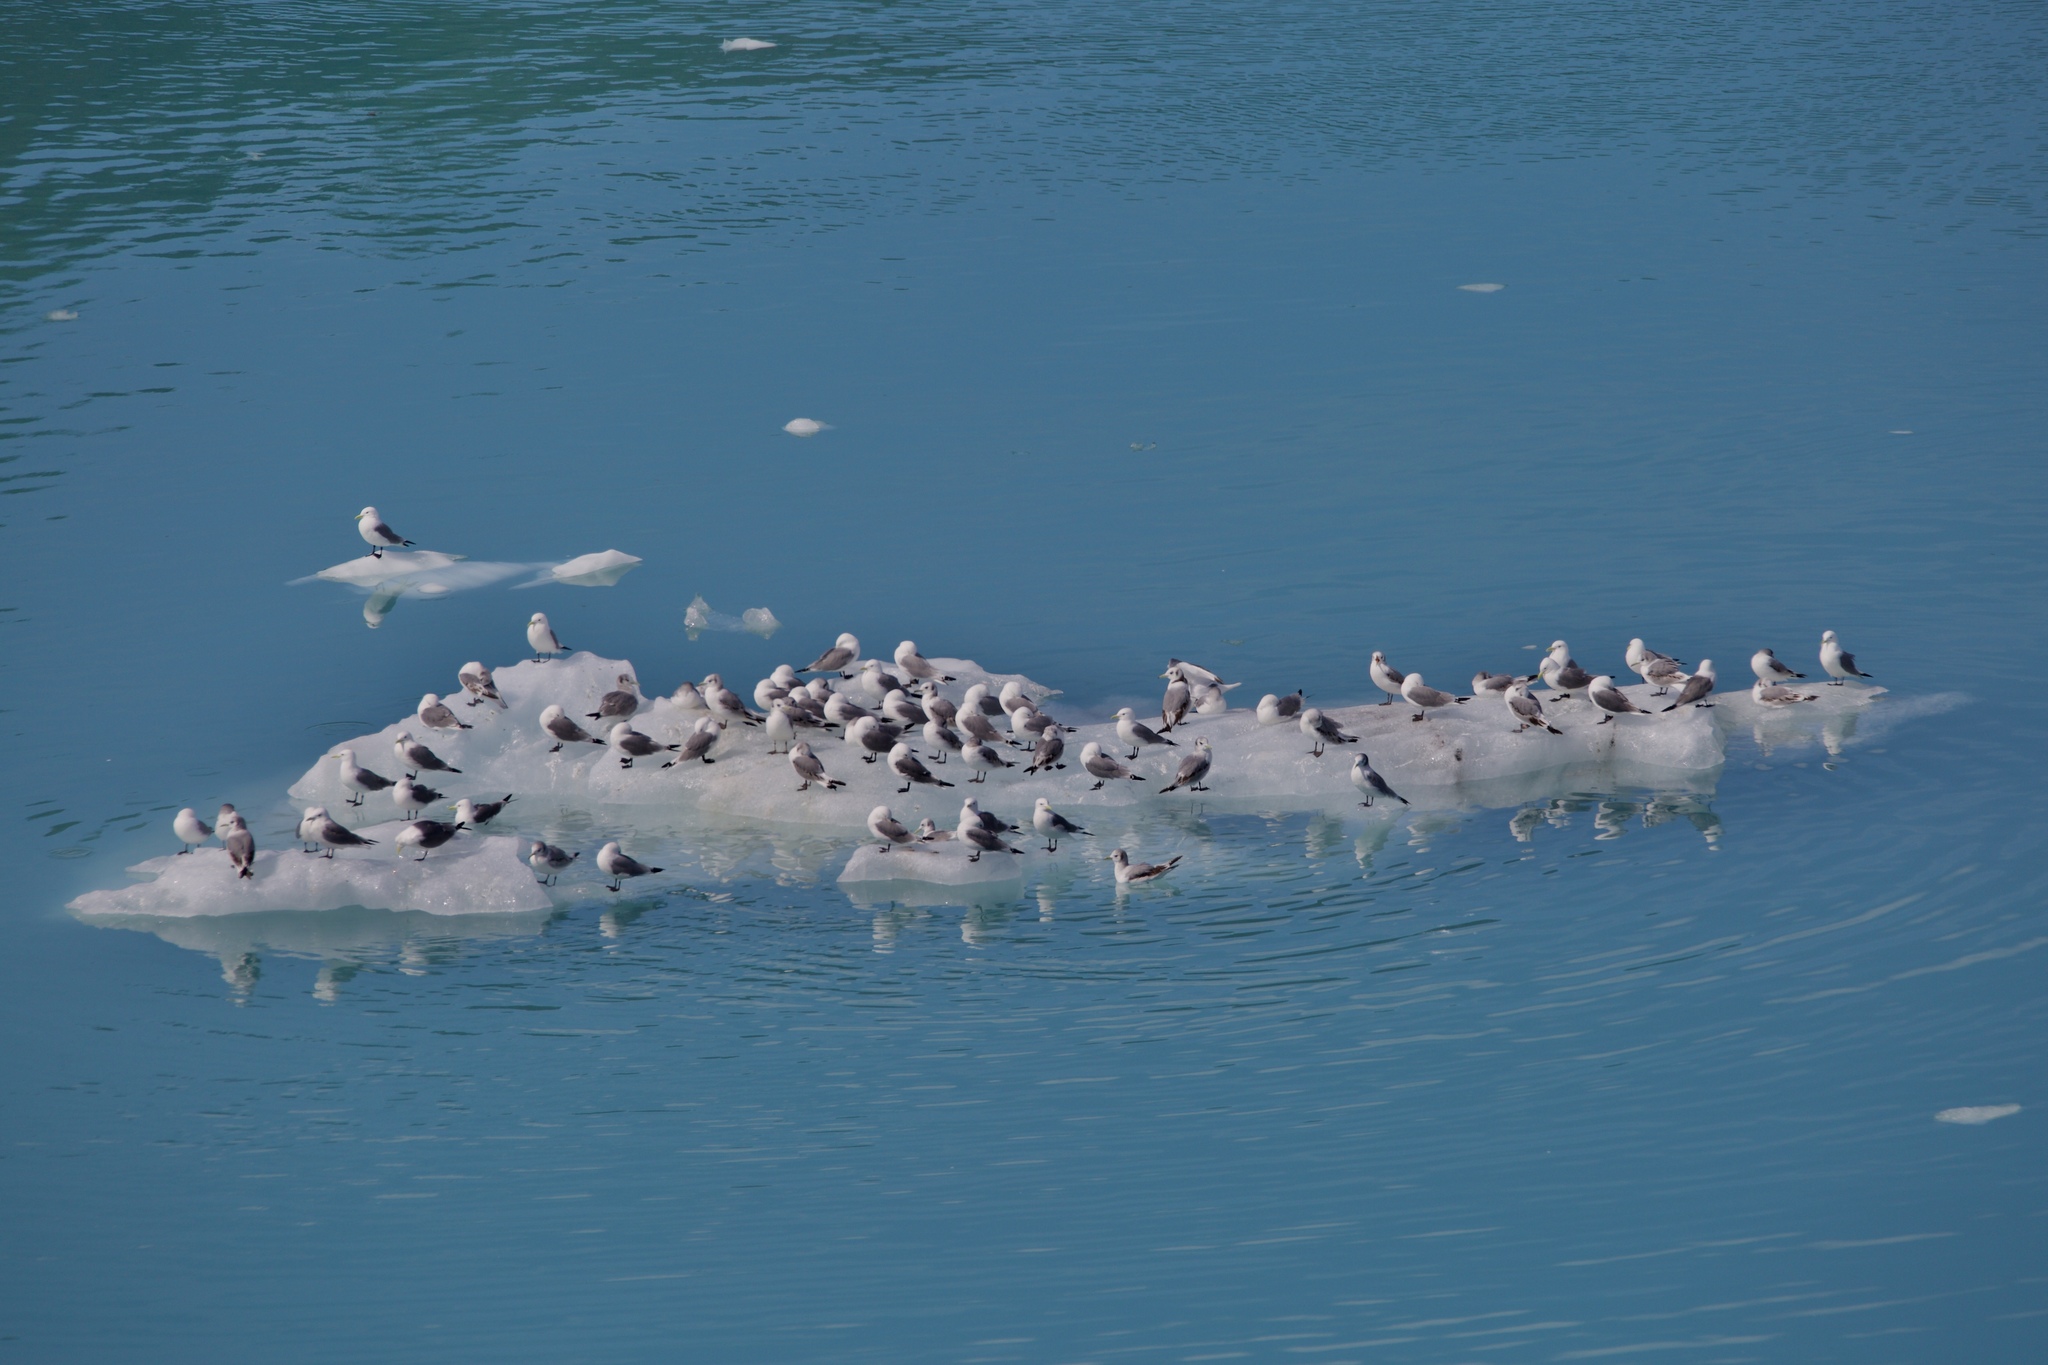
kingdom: Animalia
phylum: Chordata
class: Aves
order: Charadriiformes
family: Laridae
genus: Rissa
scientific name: Rissa tridactyla
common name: Black-legged kittiwake
